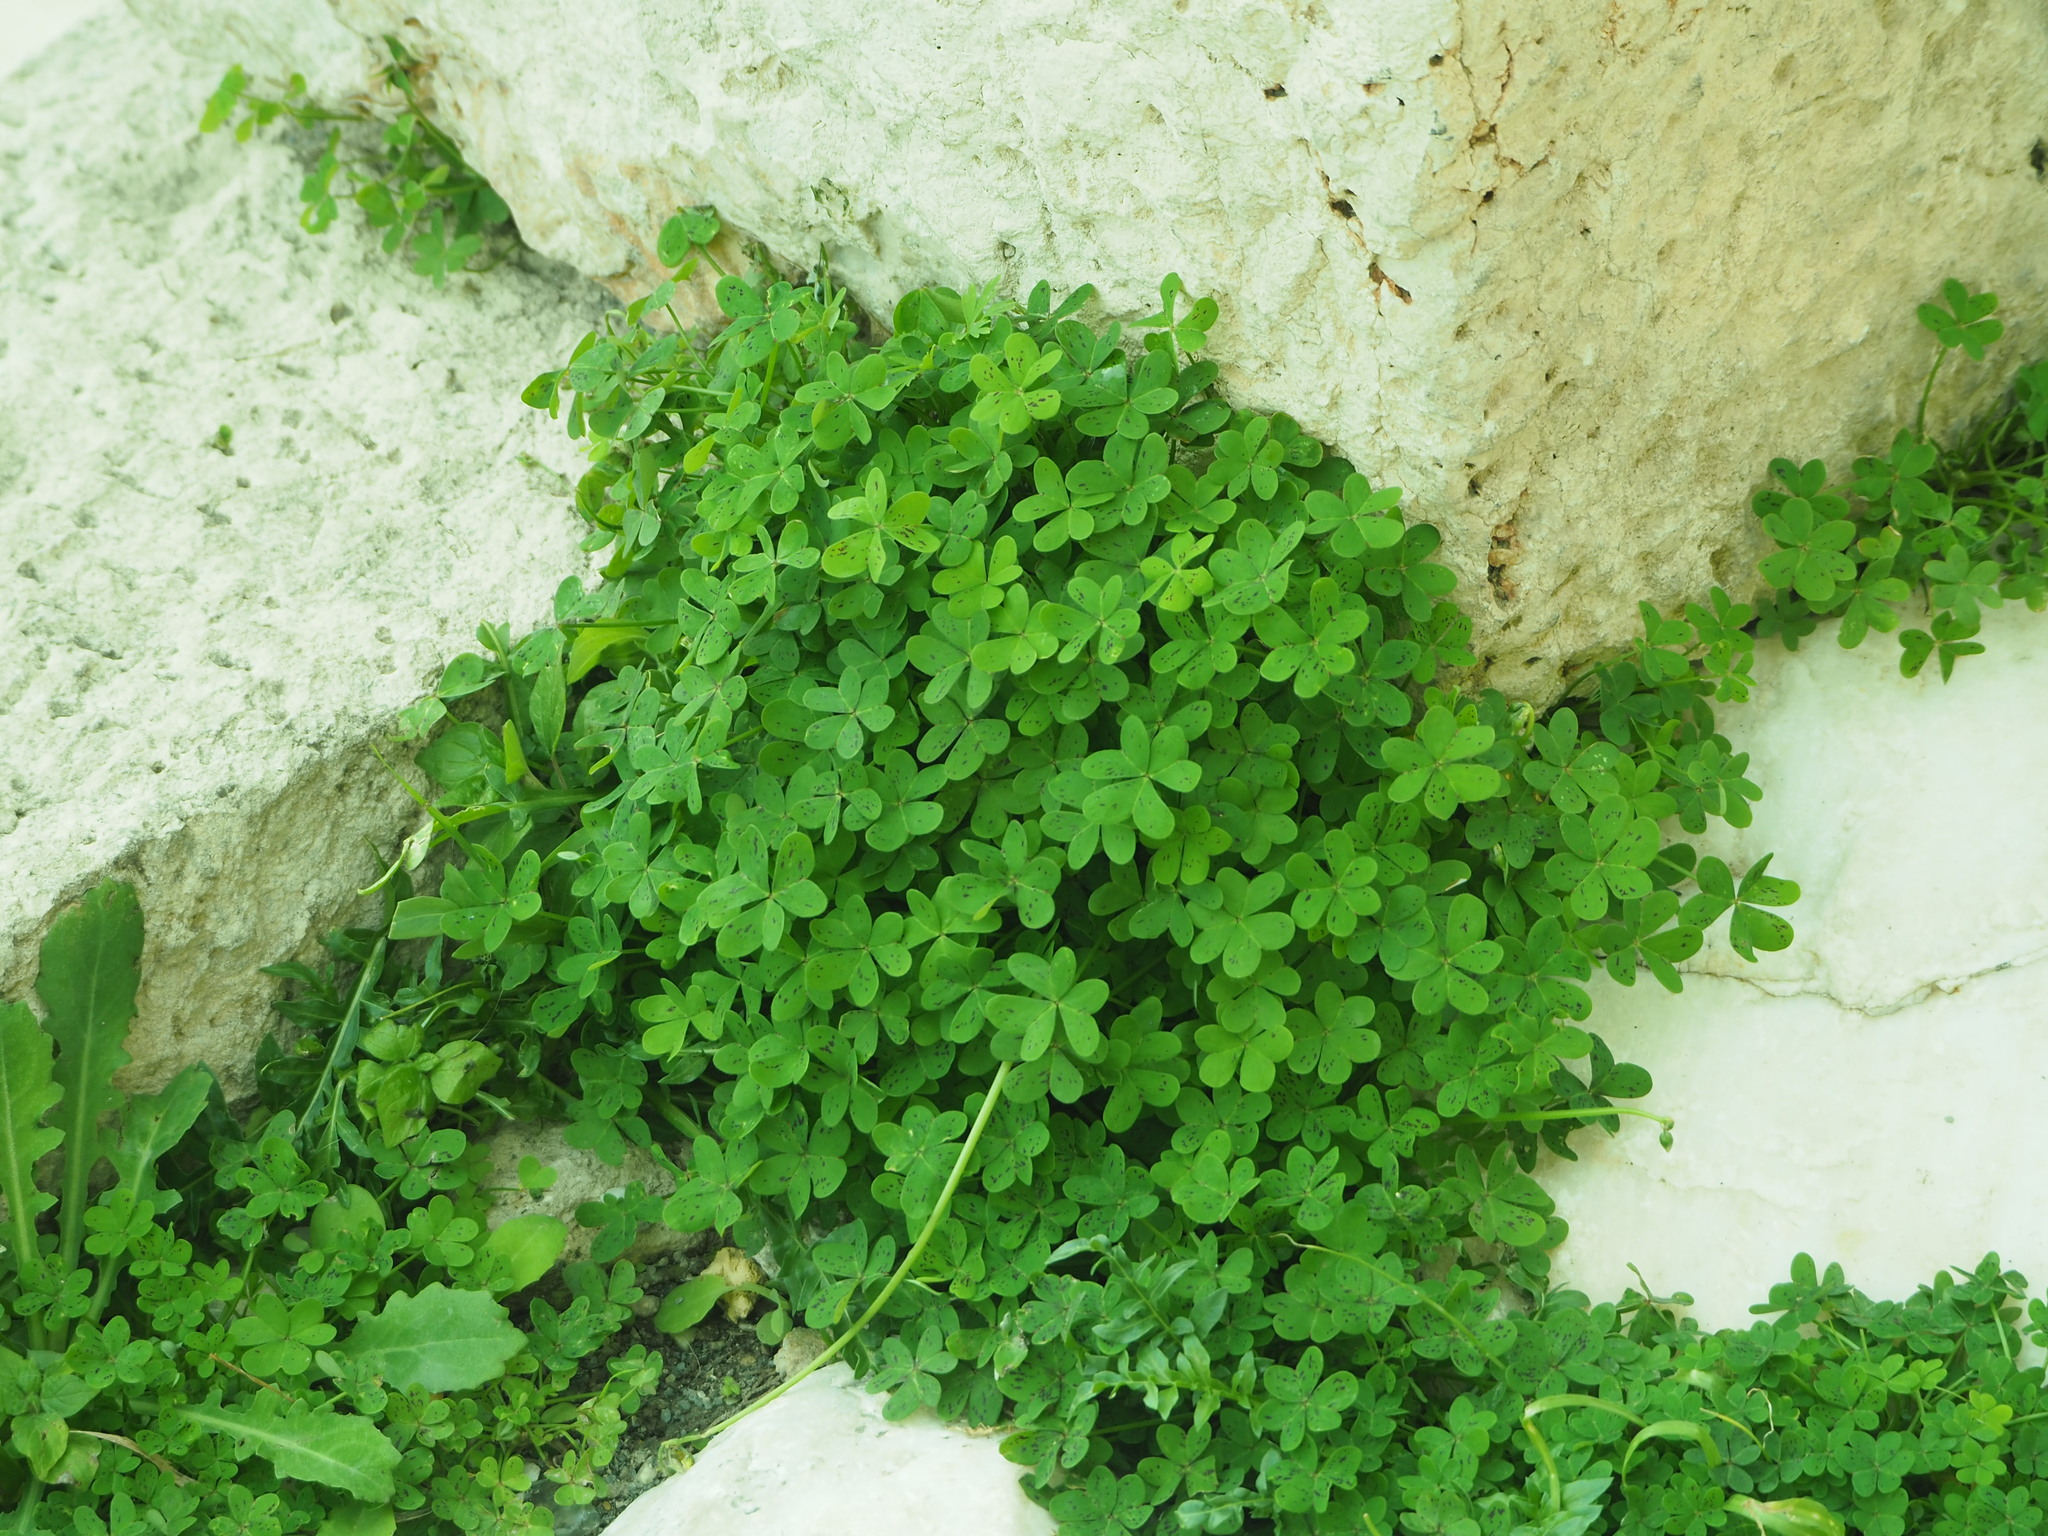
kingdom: Plantae
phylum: Tracheophyta
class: Magnoliopsida
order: Oxalidales
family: Oxalidaceae
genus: Oxalis
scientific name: Oxalis pes-caprae
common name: Bermuda-buttercup
